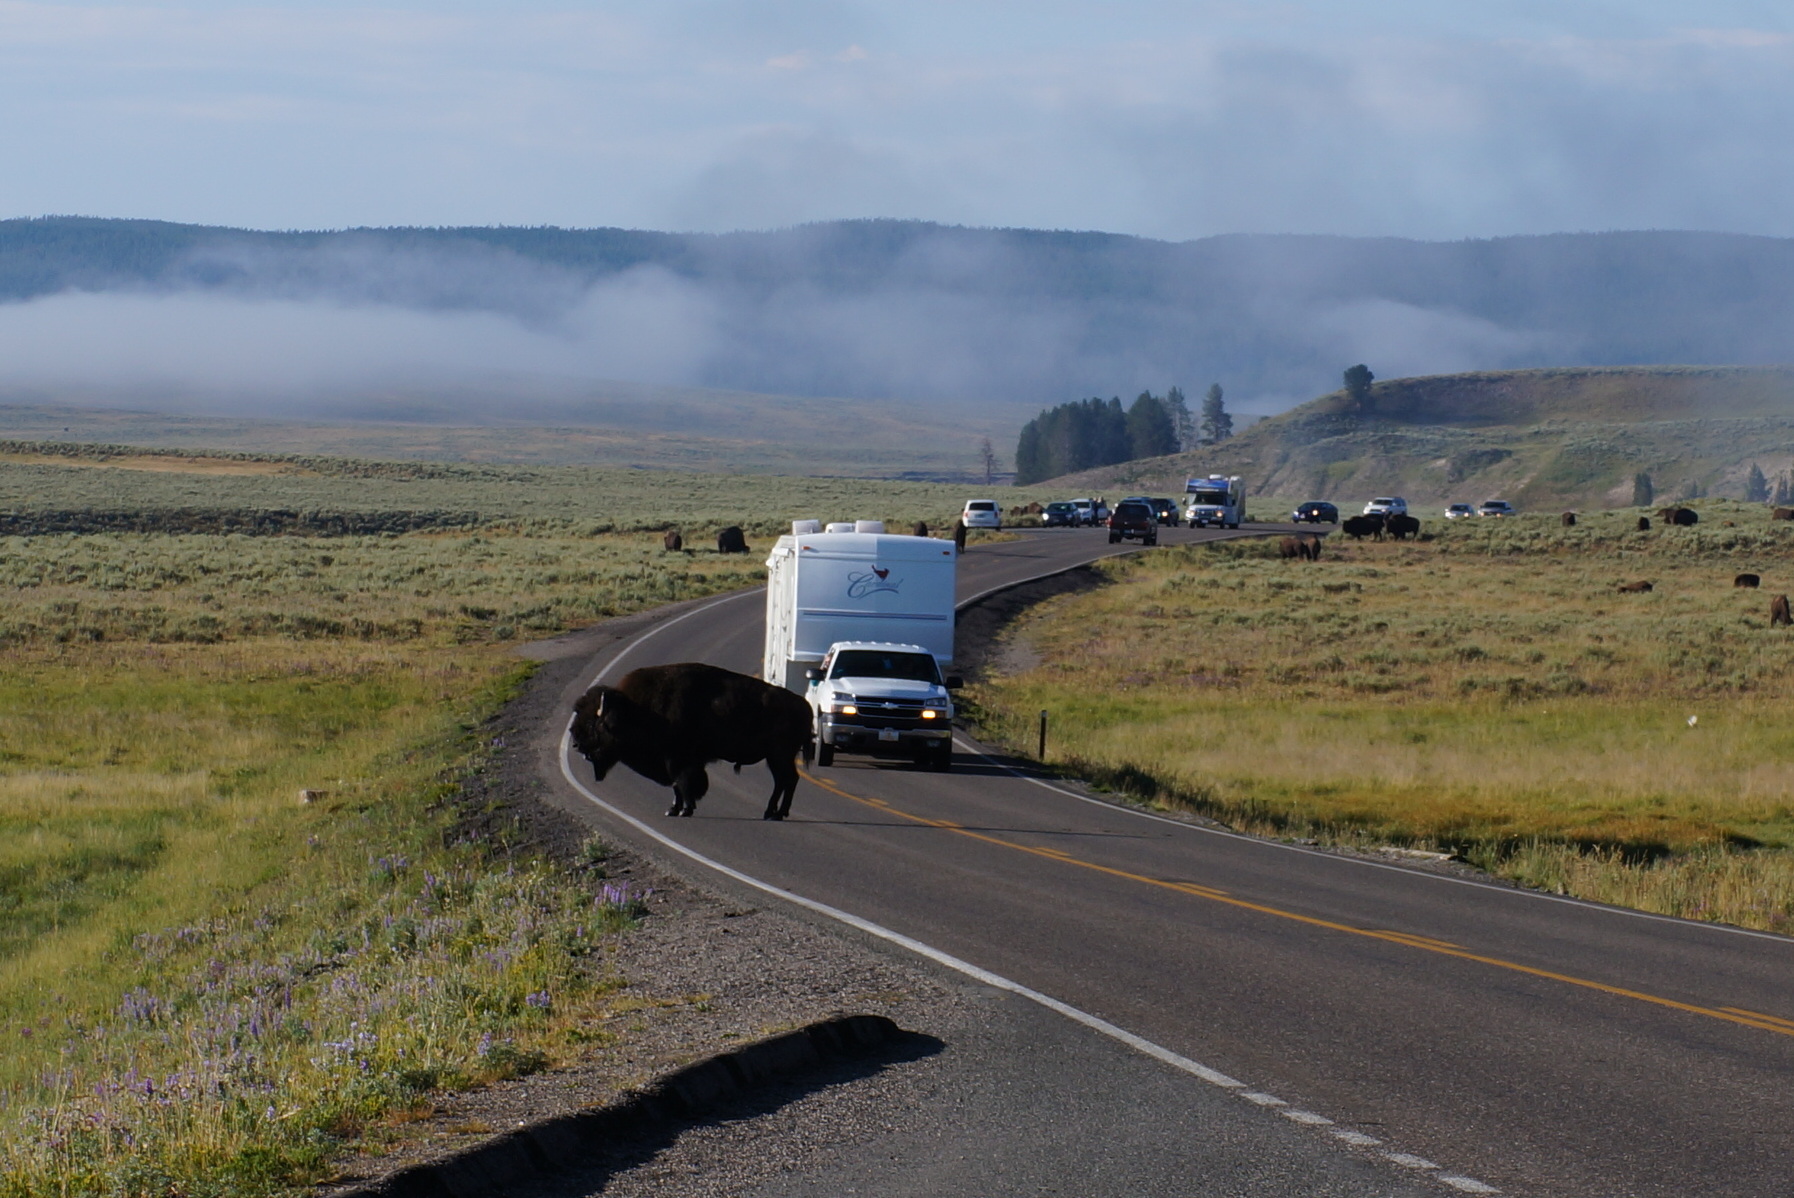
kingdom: Animalia
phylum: Chordata
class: Mammalia
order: Artiodactyla
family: Bovidae
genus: Bison
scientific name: Bison bison
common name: American bison
